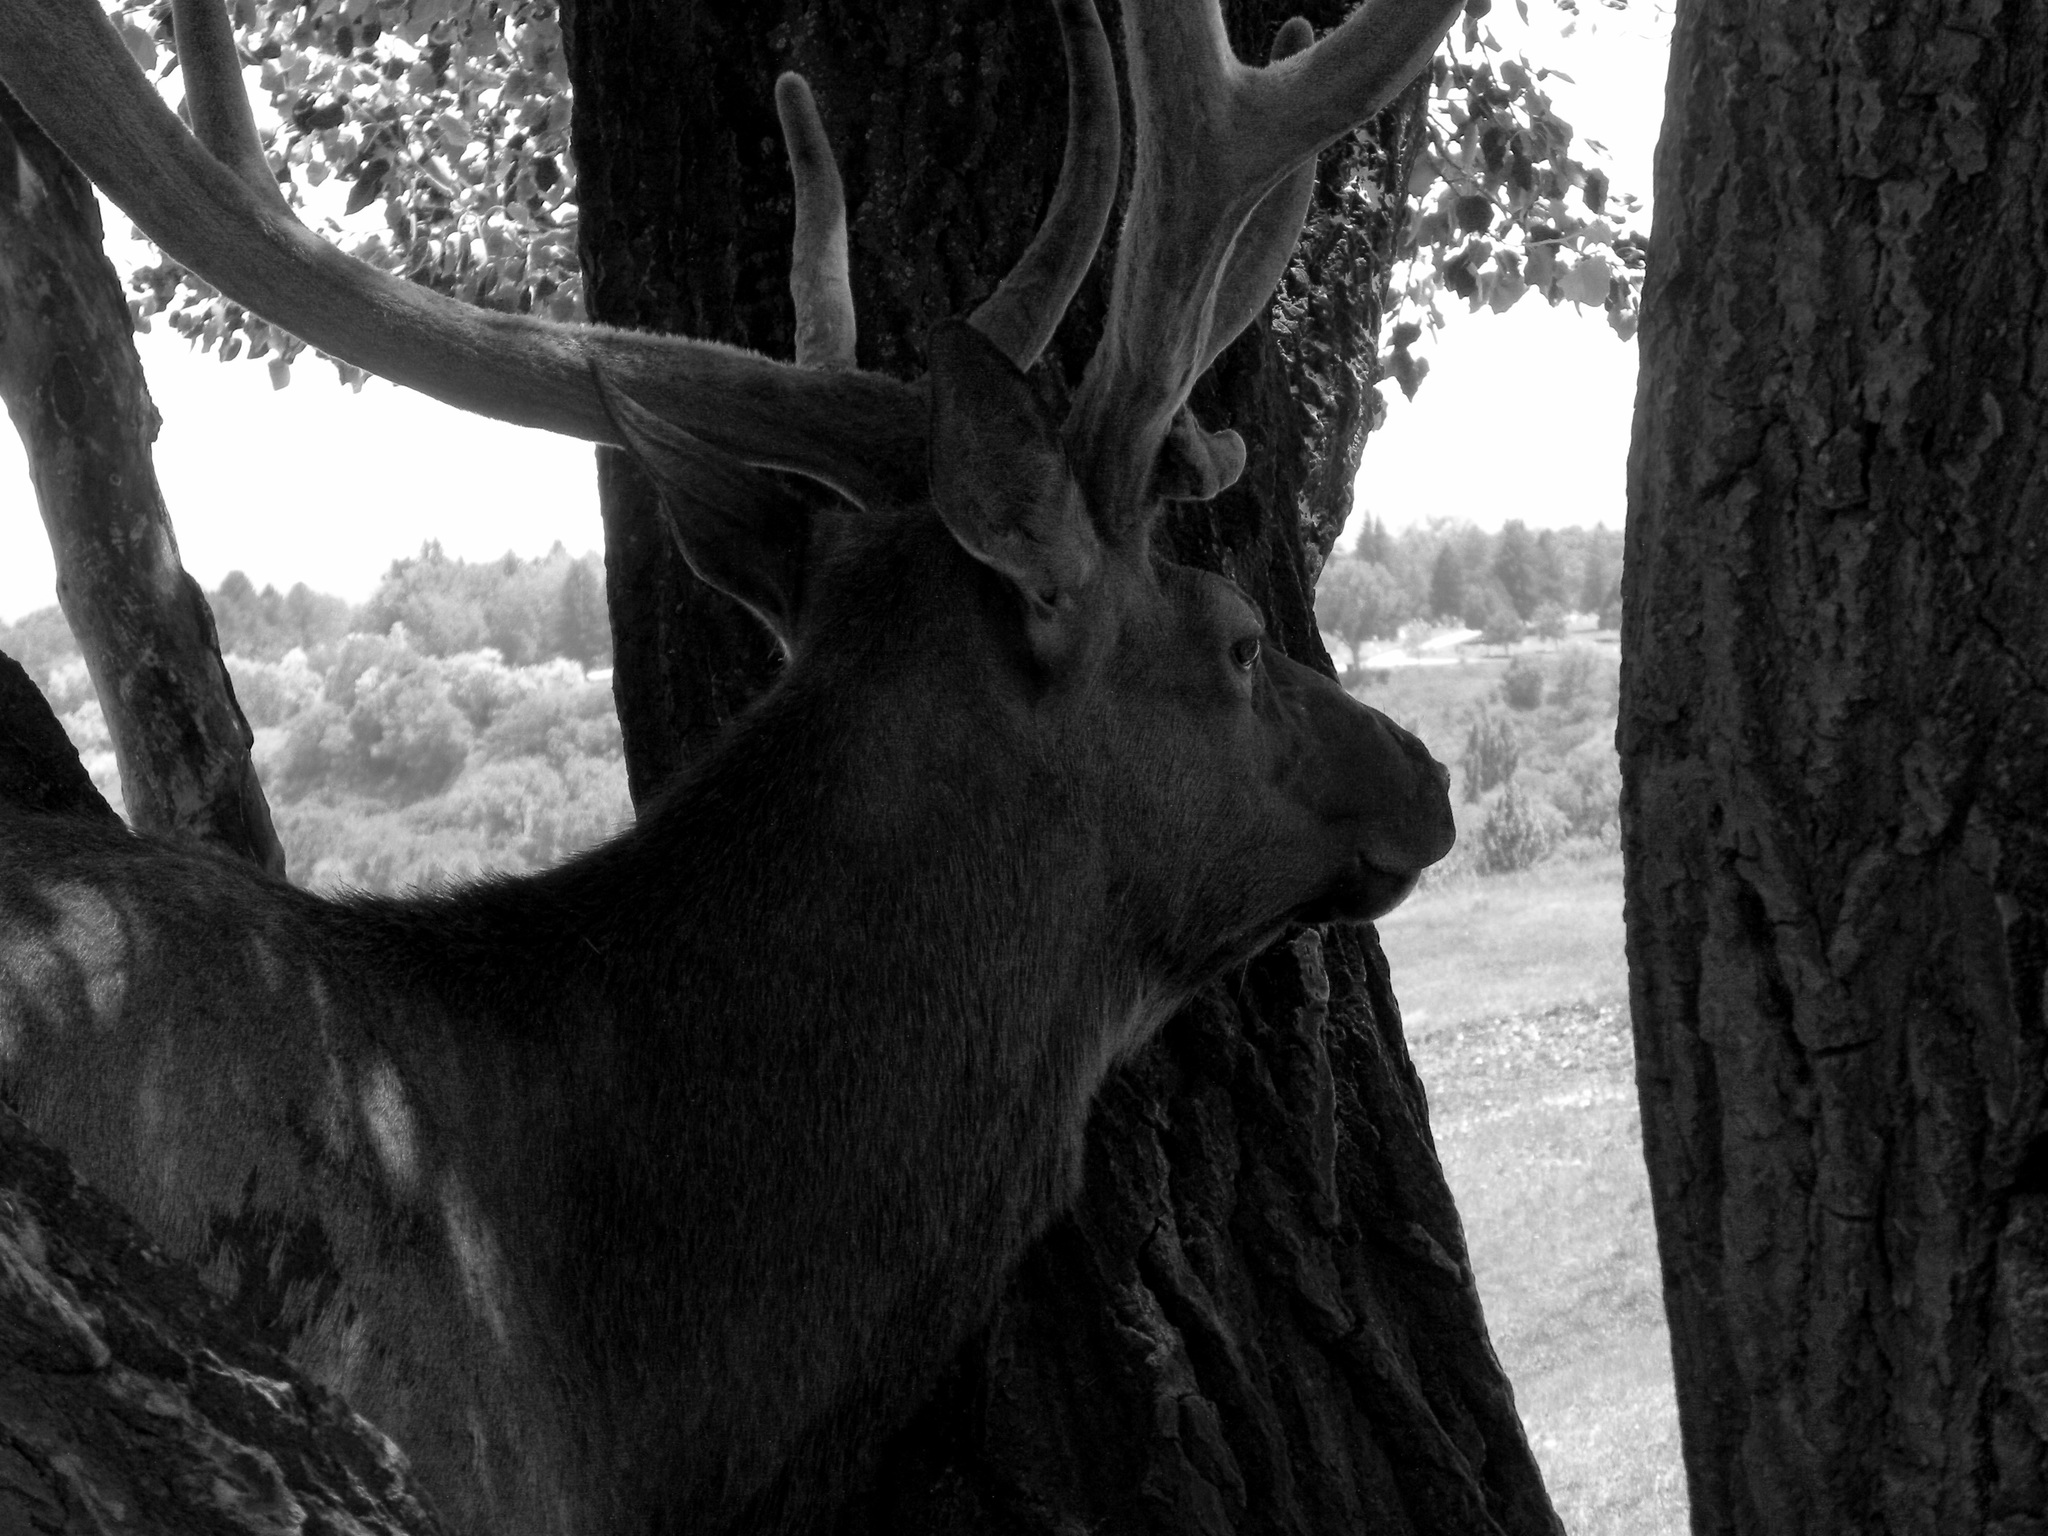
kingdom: Animalia
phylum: Chordata
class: Mammalia
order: Artiodactyla
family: Cervidae
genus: Cervus
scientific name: Cervus elaphus
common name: Red deer
